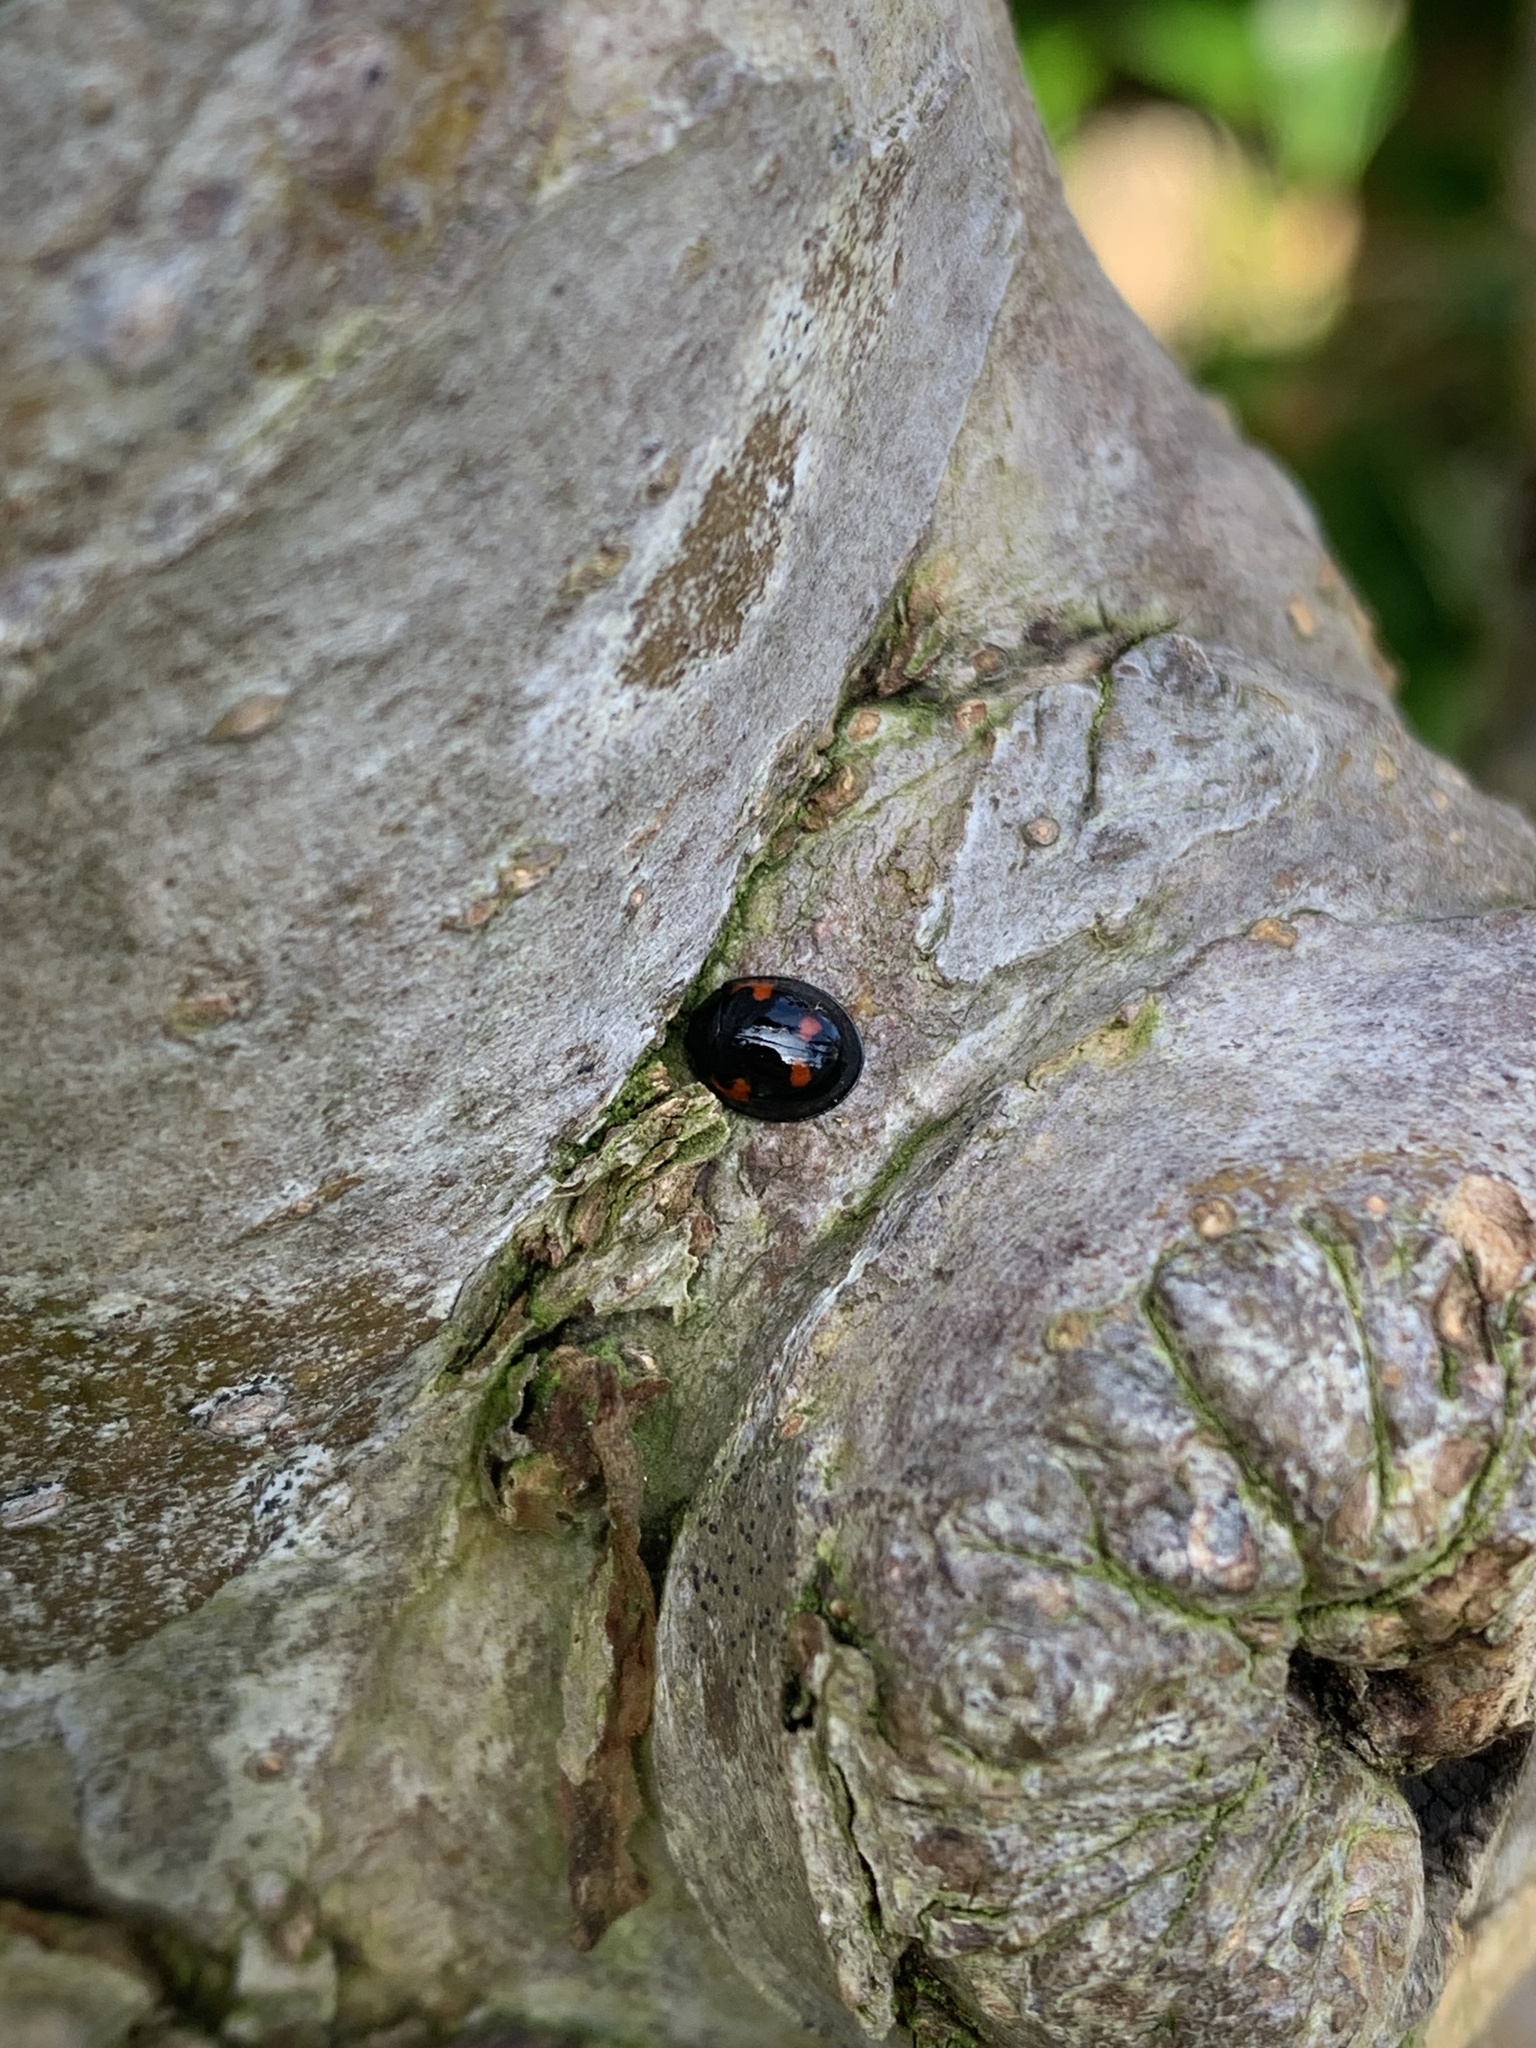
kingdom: Animalia
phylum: Arthropoda
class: Insecta
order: Coleoptera
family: Coccinellidae
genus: Brumus
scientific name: Brumus quadripustulatus
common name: Ladybird beetle
